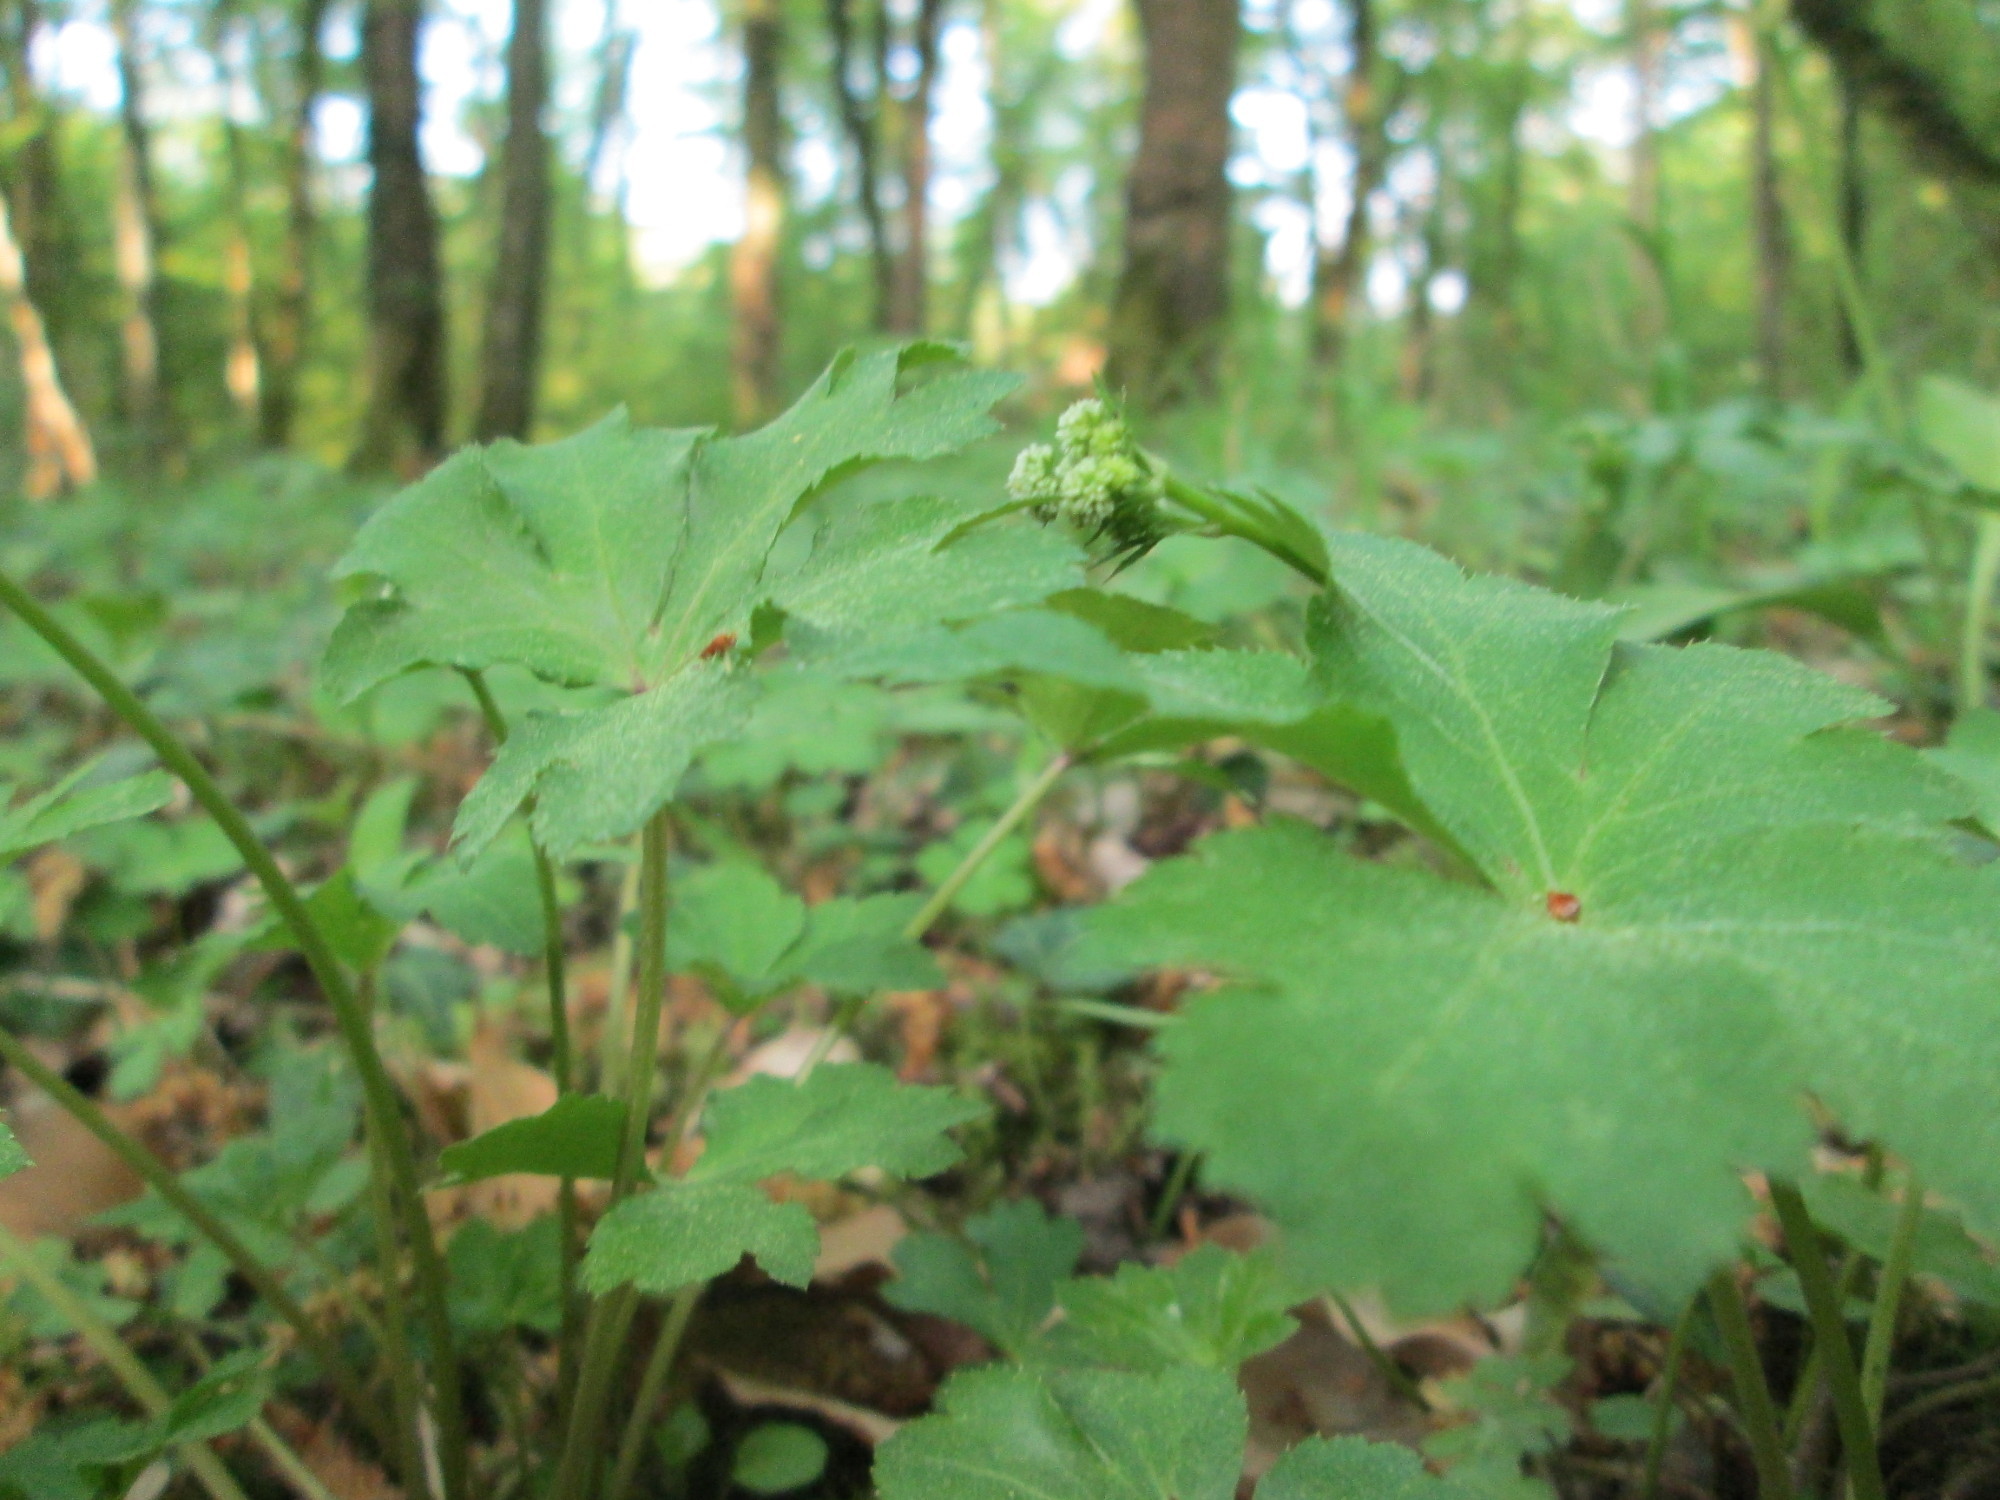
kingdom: Plantae
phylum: Tracheophyta
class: Magnoliopsida
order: Apiales
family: Apiaceae
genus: Sanicula
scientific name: Sanicula europaea
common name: Sanicle
